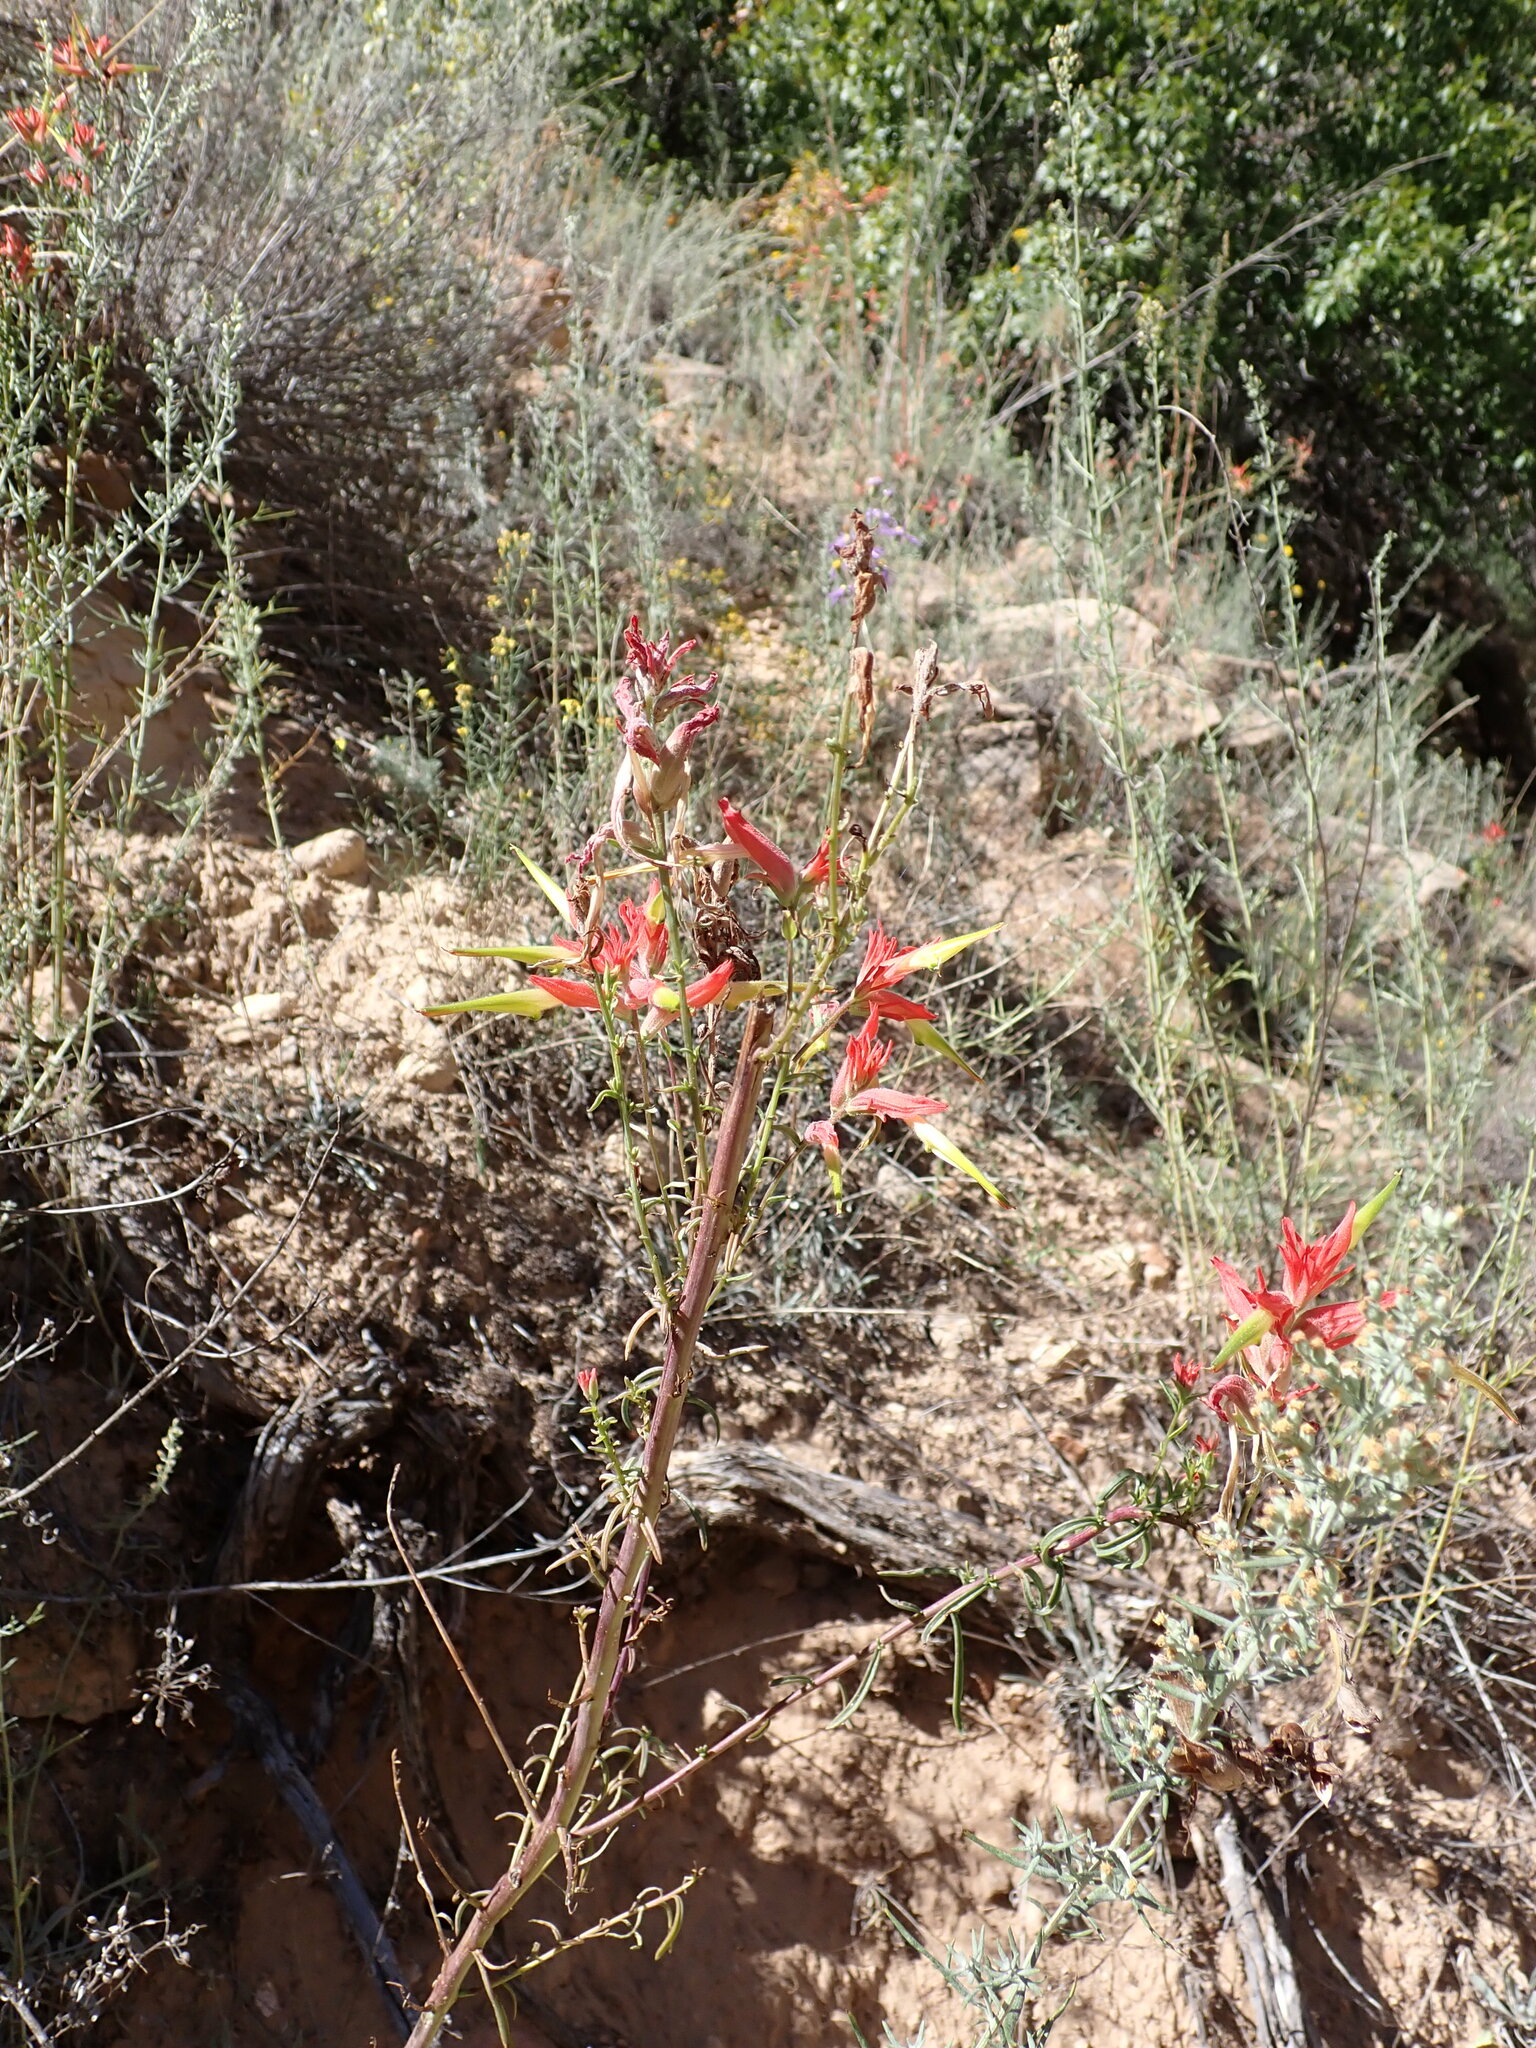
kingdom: Plantae
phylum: Tracheophyta
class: Magnoliopsida
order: Lamiales
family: Orobanchaceae
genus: Castilleja
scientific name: Castilleja linariifolia
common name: Wyoming paintbrush
